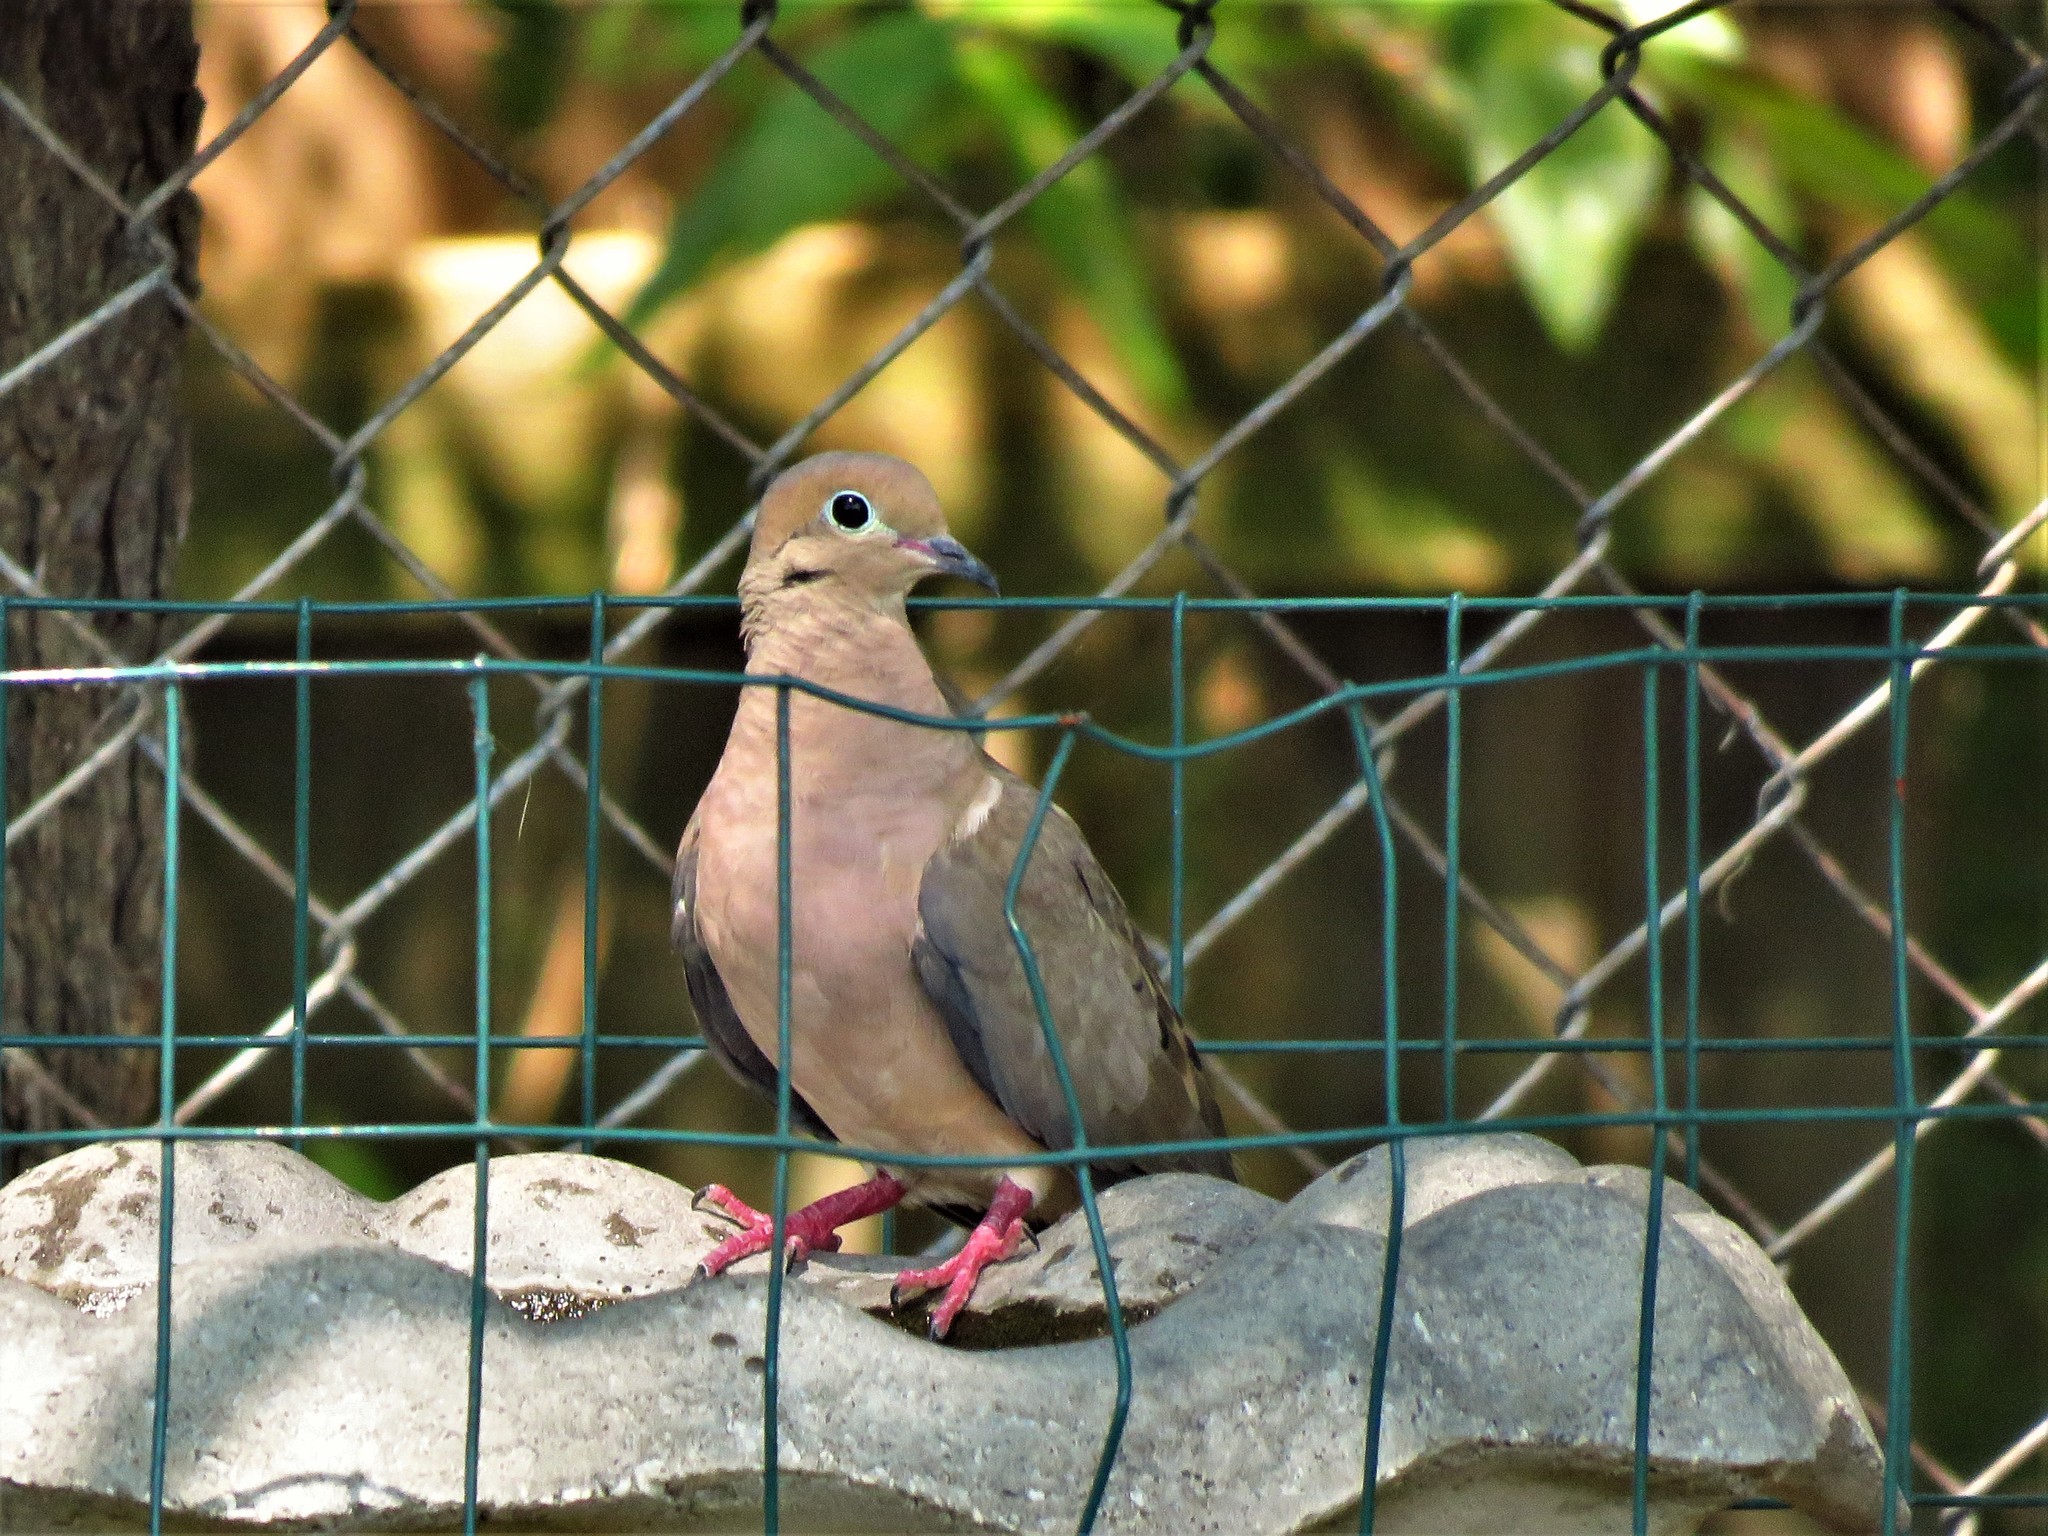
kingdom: Animalia
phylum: Chordata
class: Aves
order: Columbiformes
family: Columbidae
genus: Zenaida
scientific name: Zenaida macroura
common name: Mourning dove
